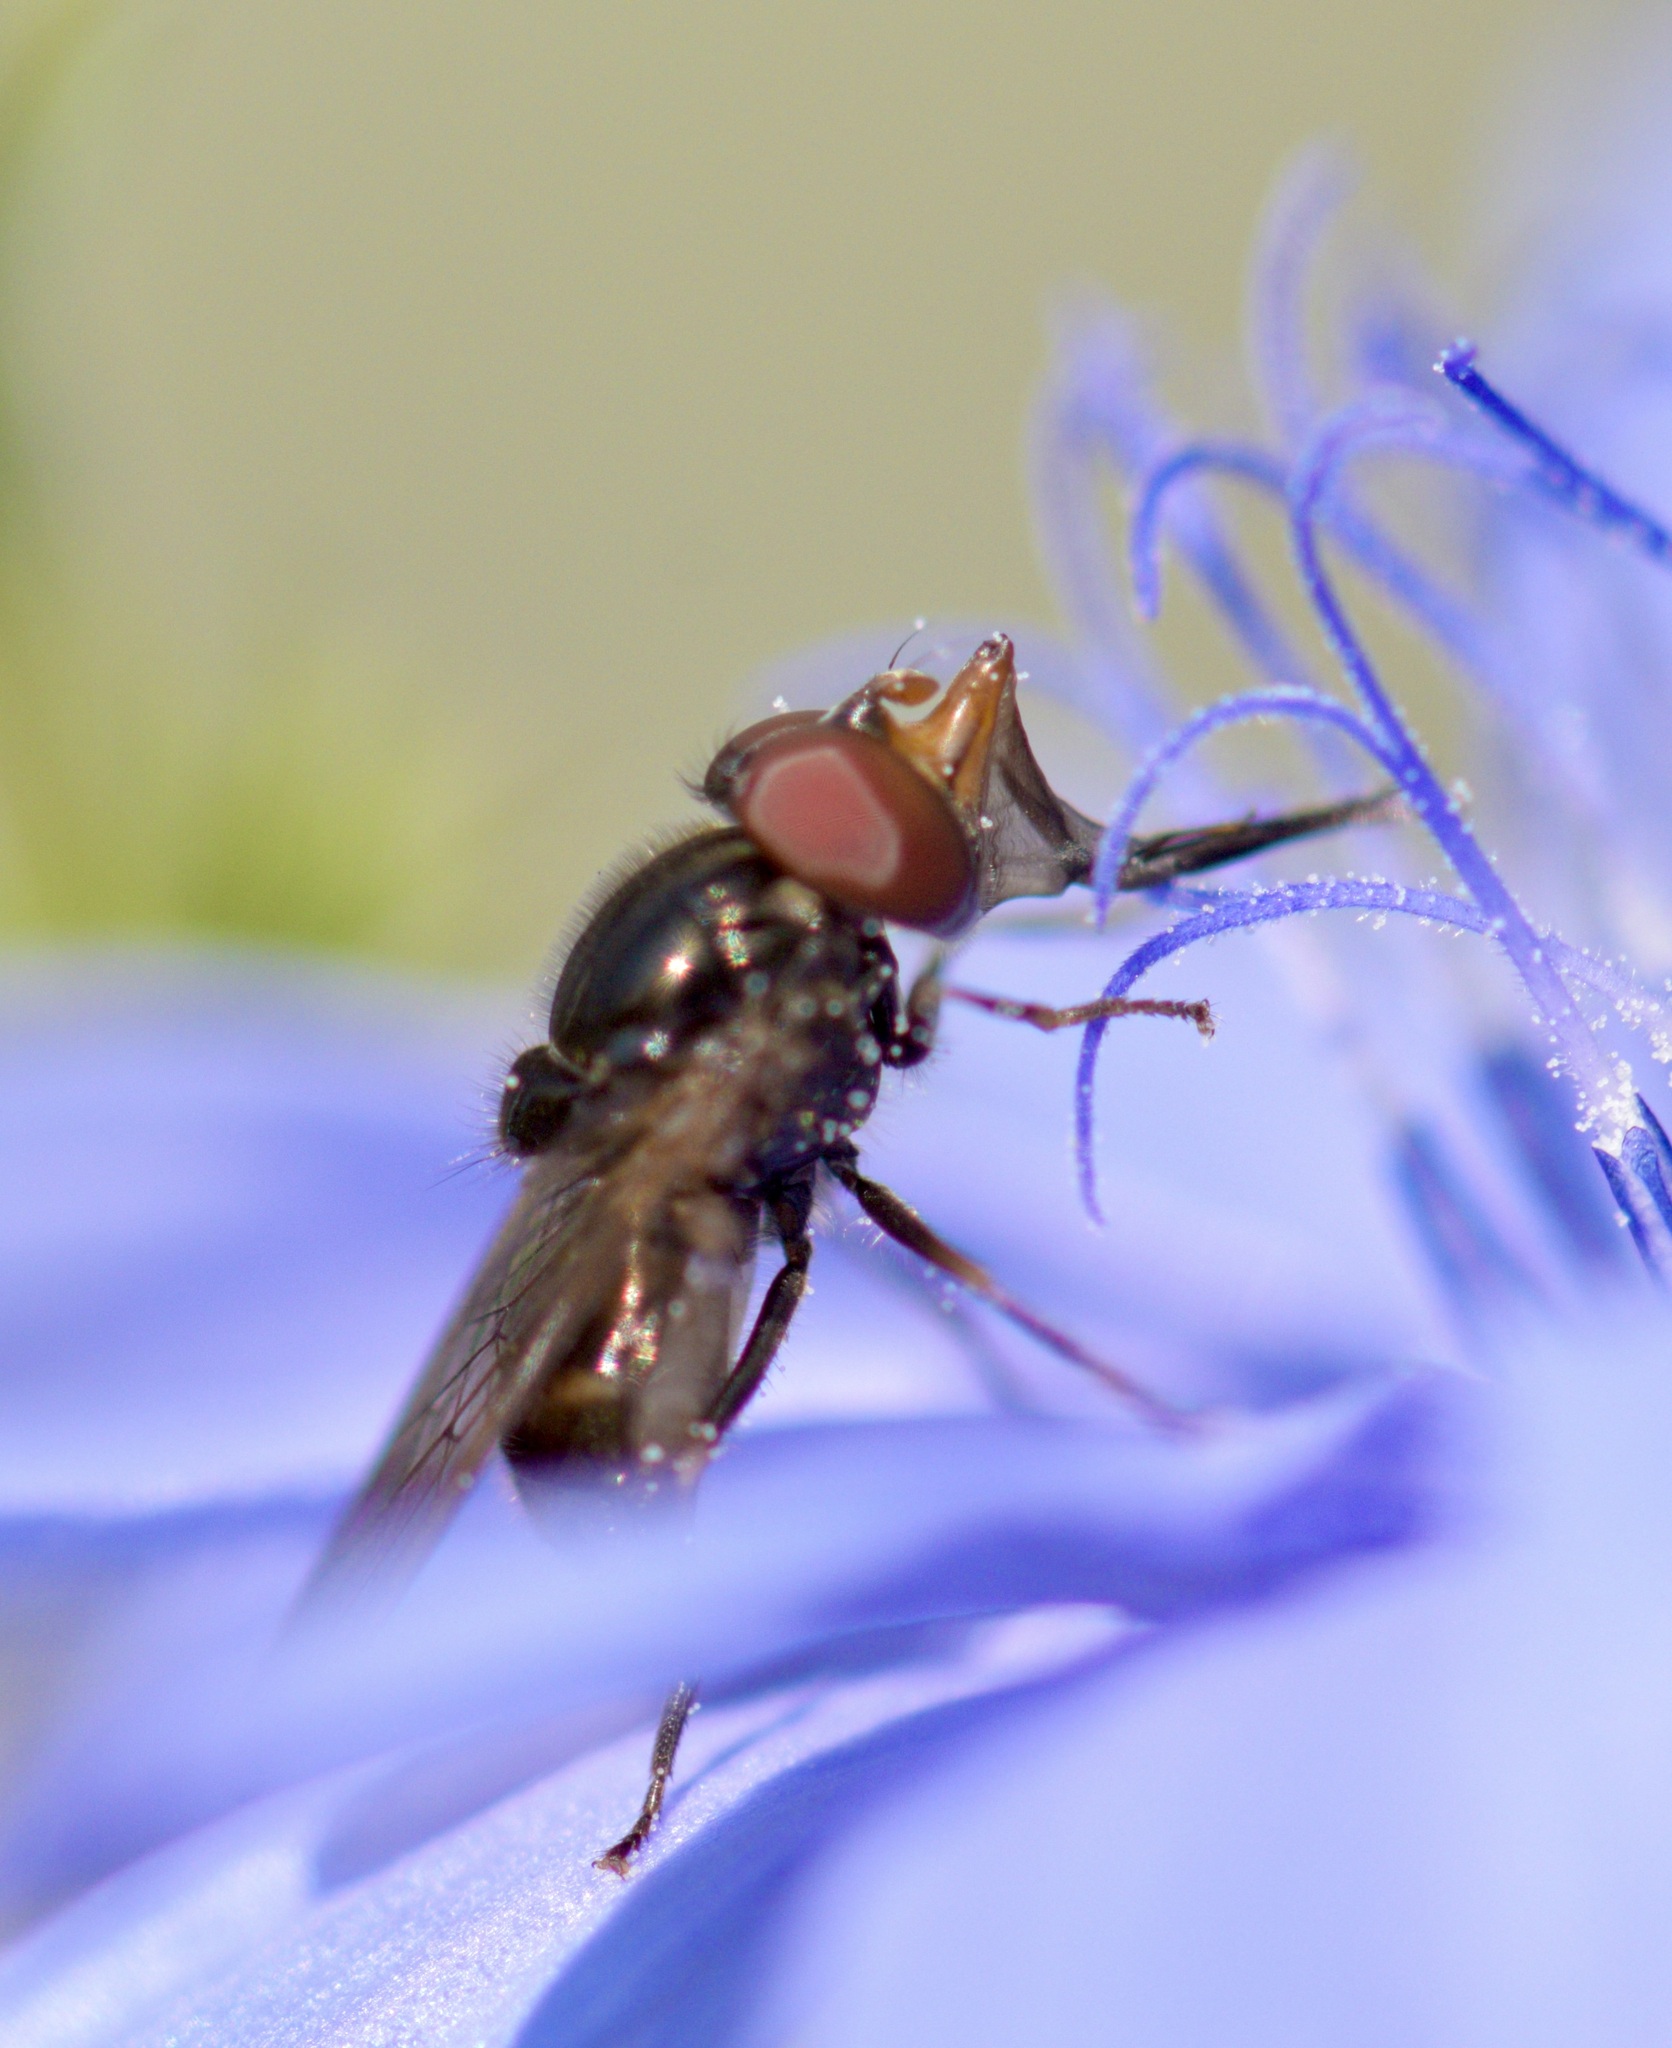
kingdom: Animalia
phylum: Arthropoda
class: Insecta
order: Diptera
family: Syrphidae
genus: Rhingia
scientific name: Rhingia nasica
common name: American snout fly
